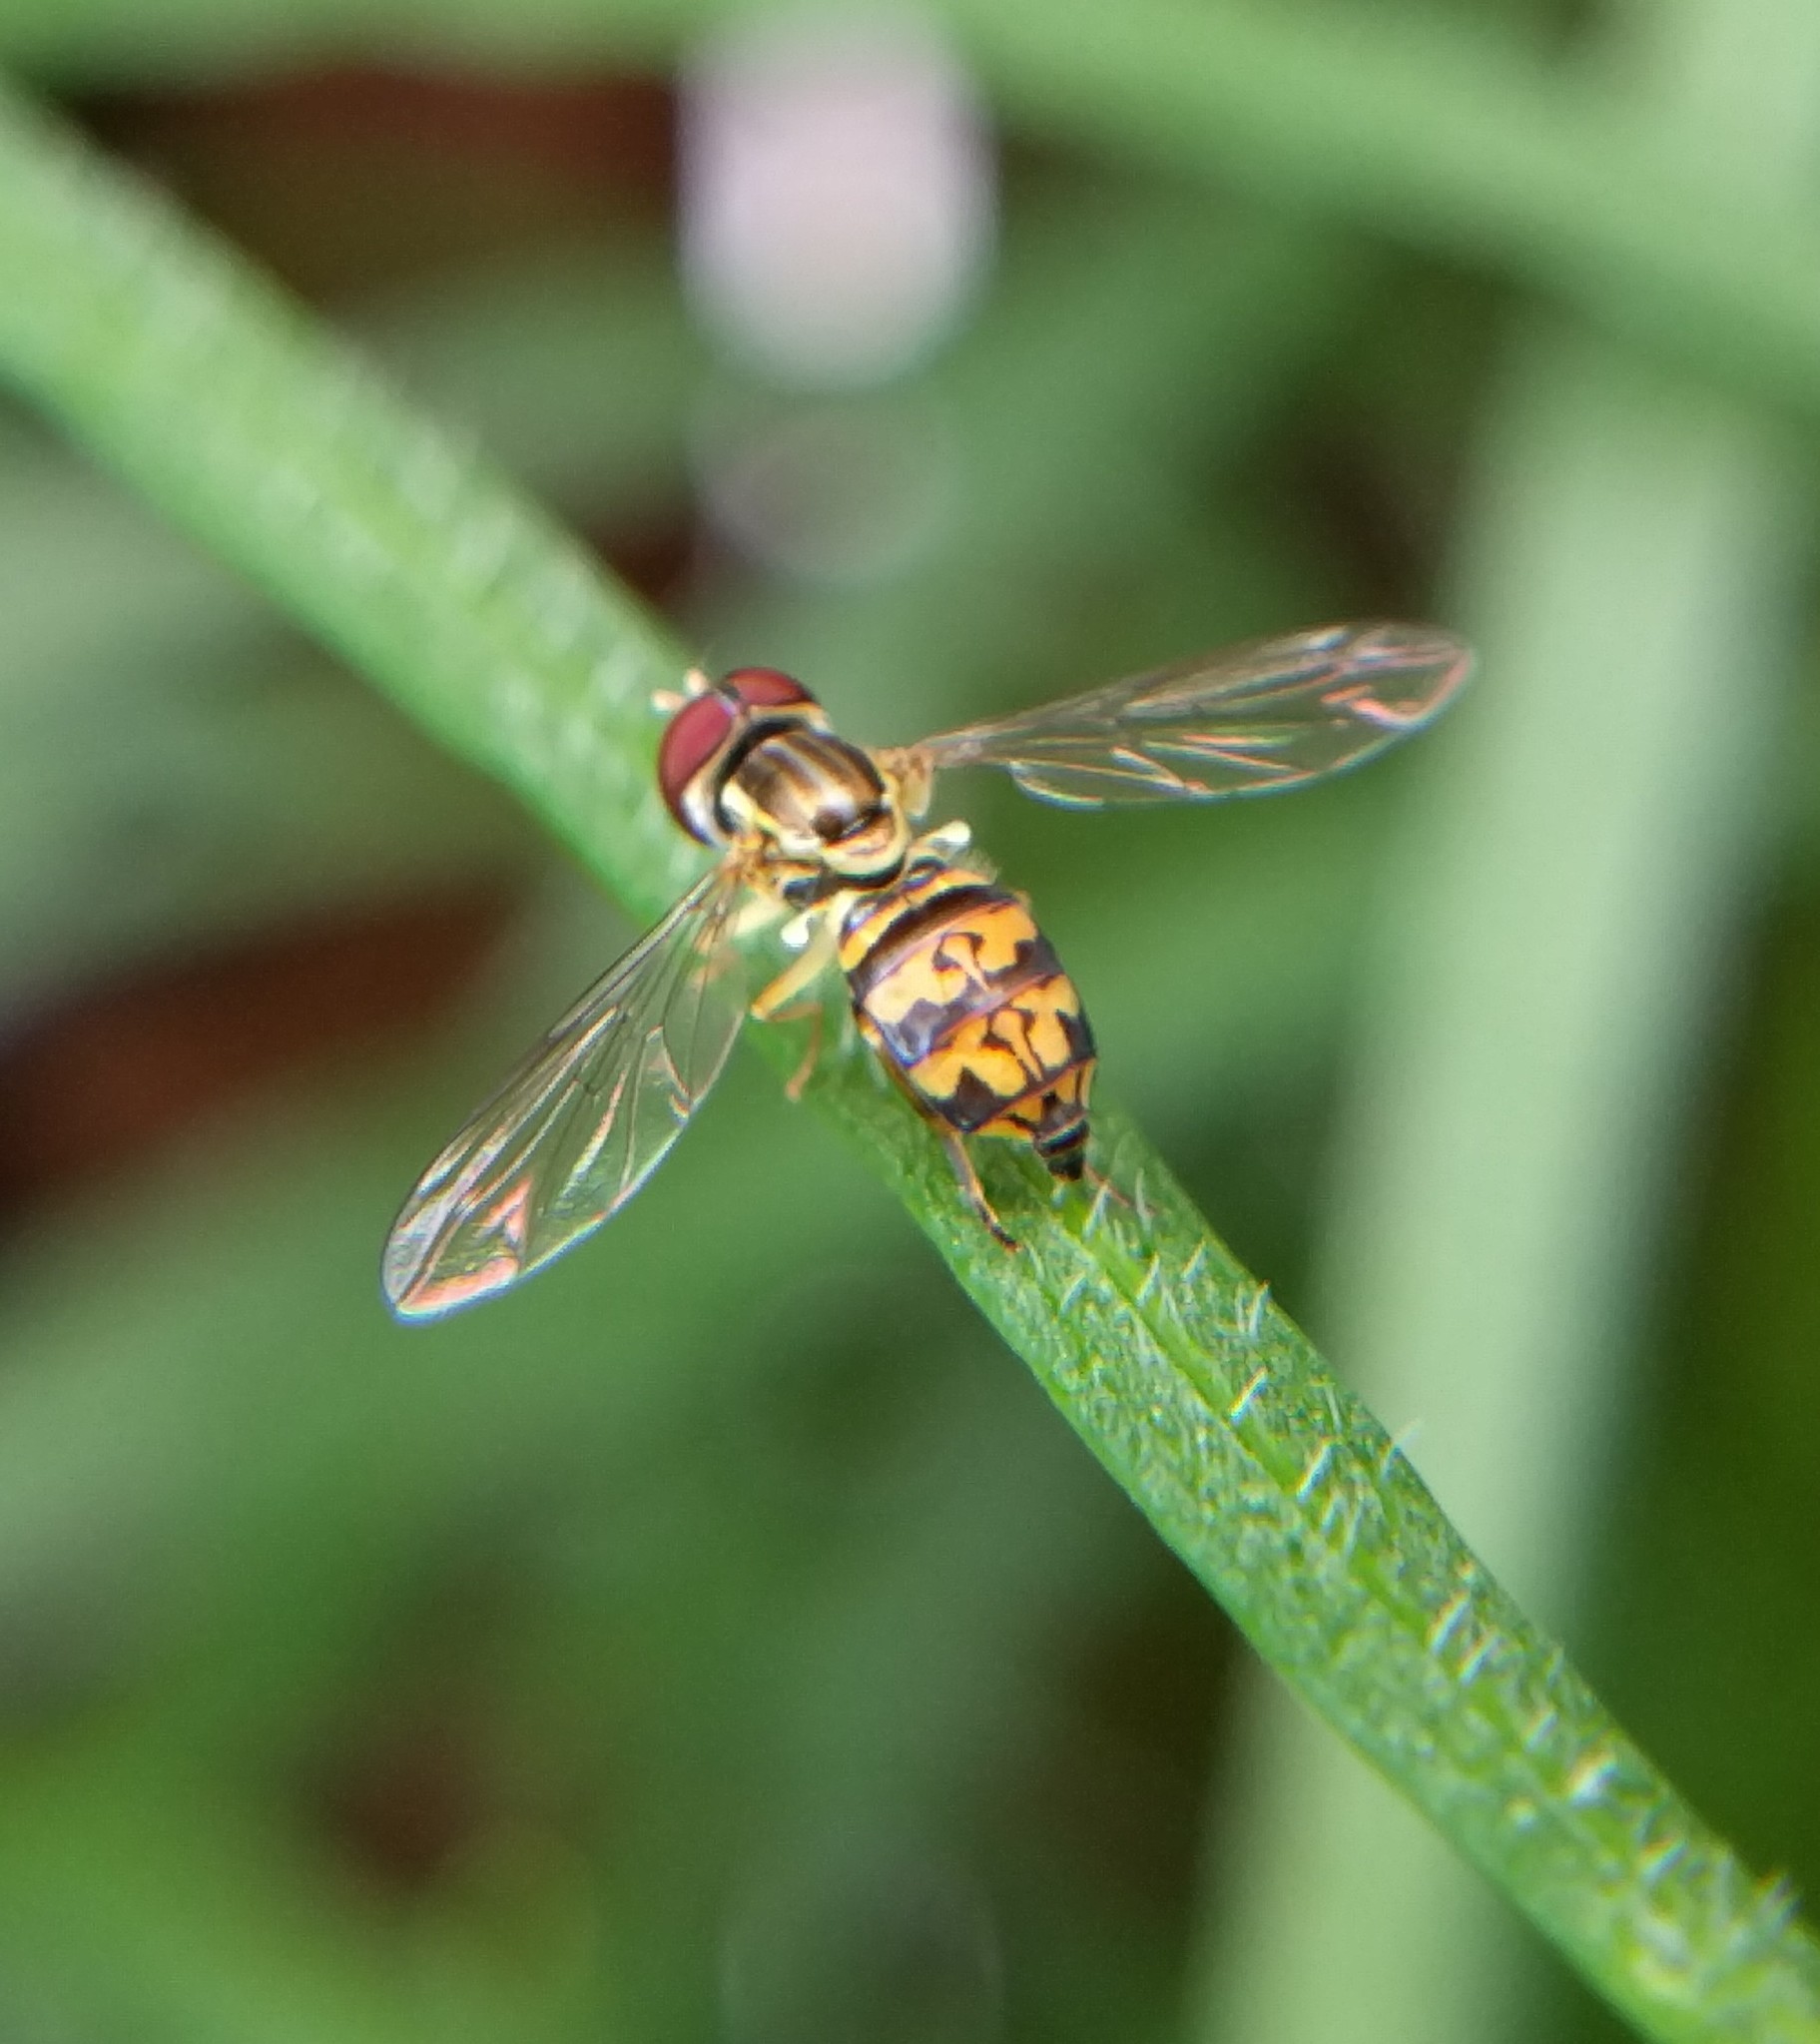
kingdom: Animalia
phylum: Arthropoda
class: Insecta
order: Diptera
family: Syrphidae
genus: Toxomerus
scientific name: Toxomerus geminatus
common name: Eastern calligrapher
